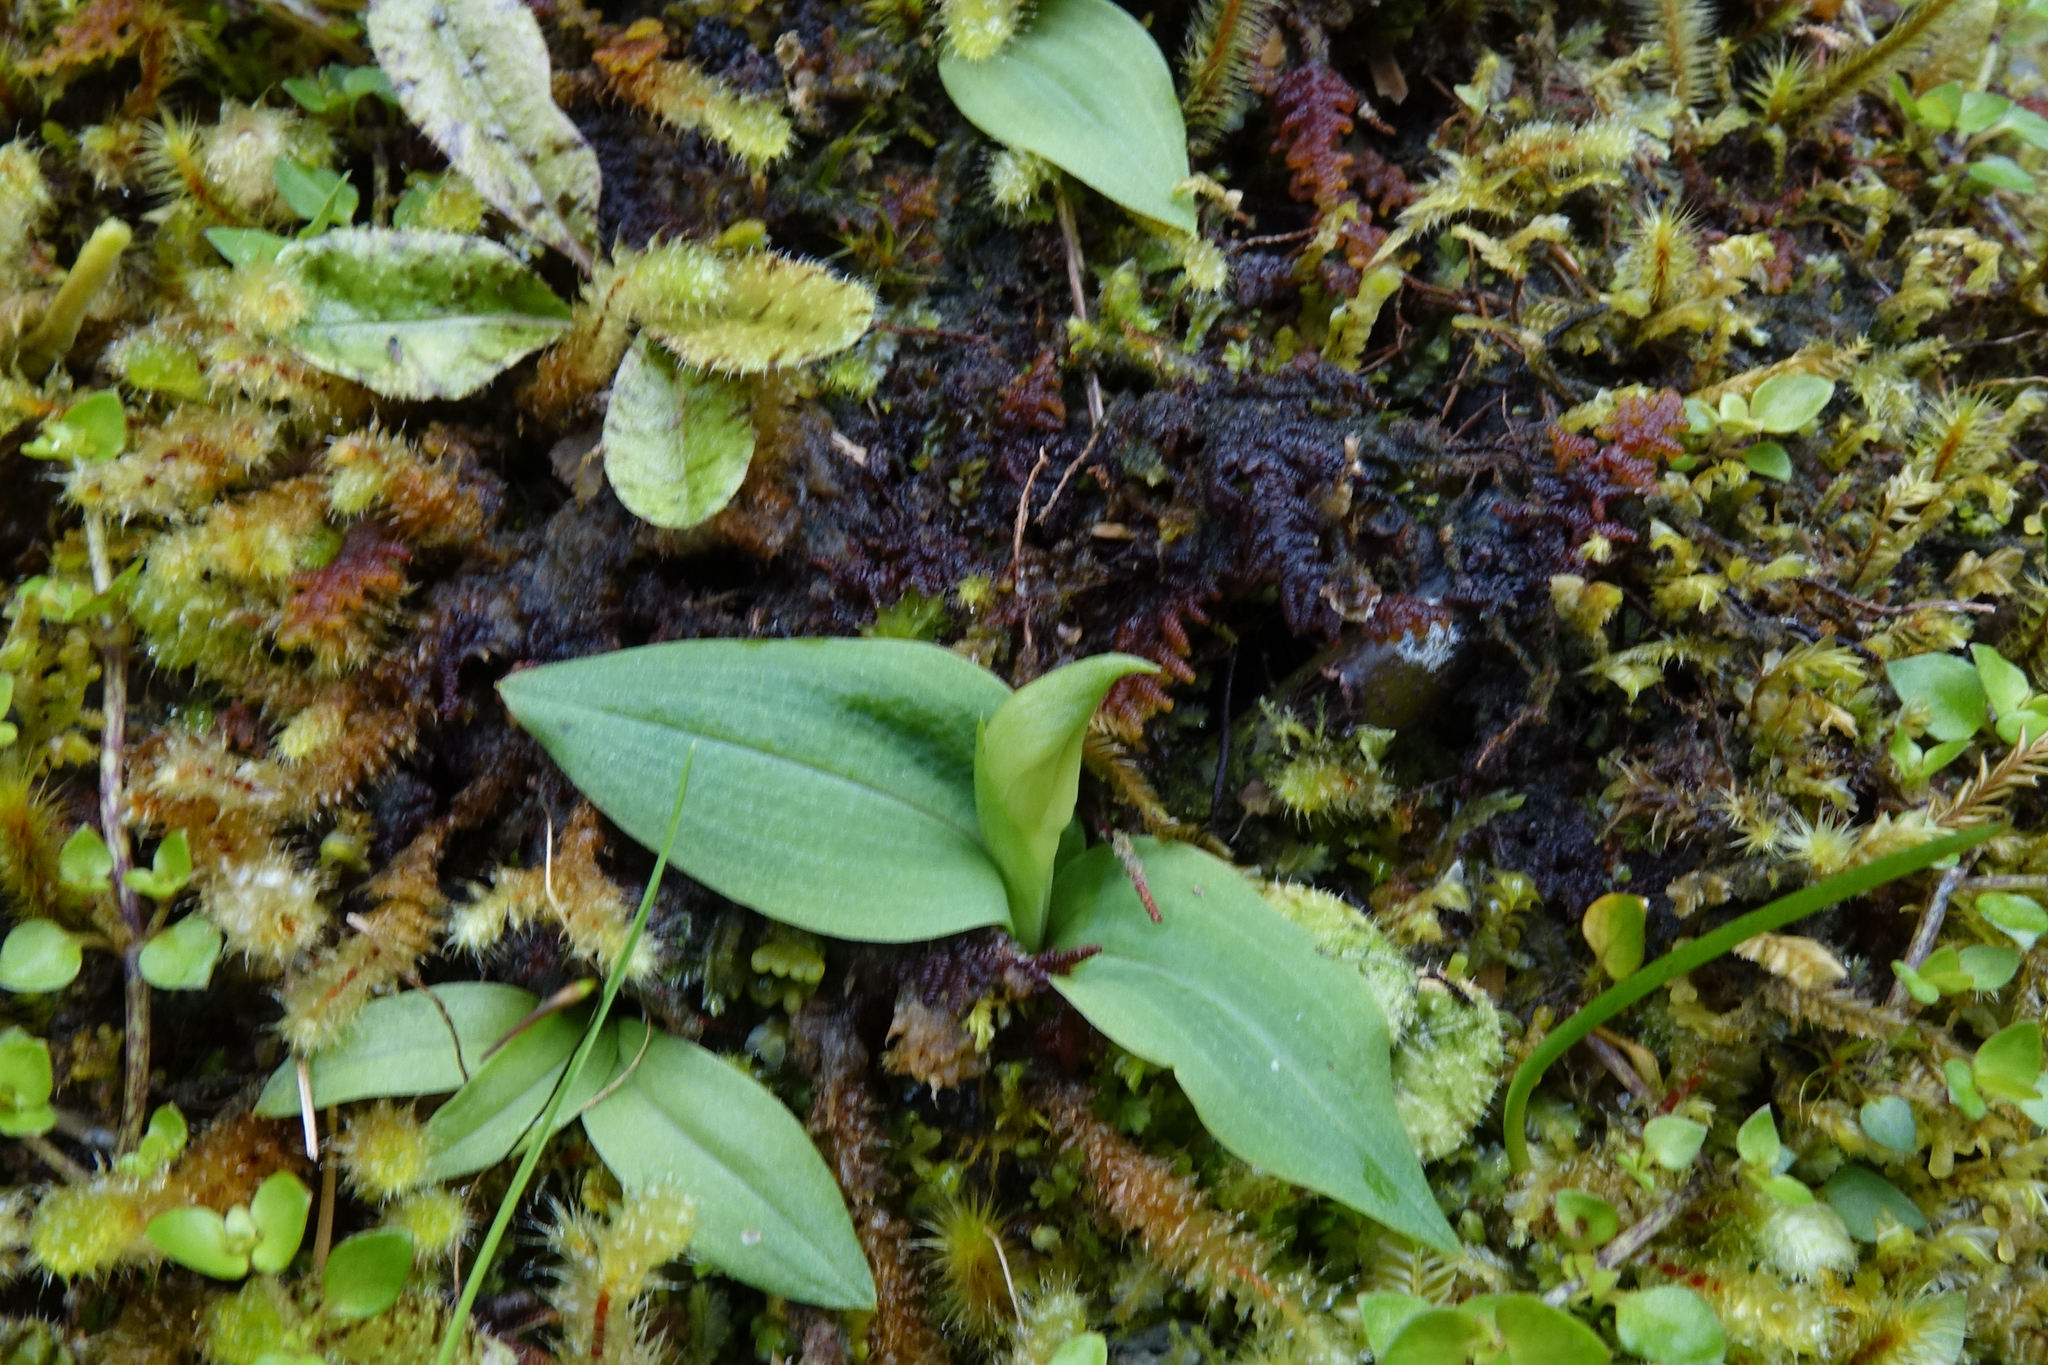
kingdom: Plantae
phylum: Tracheophyta
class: Liliopsida
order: Asparagales
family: Orchidaceae
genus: Chiloglottis
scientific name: Chiloglottis cornuta
